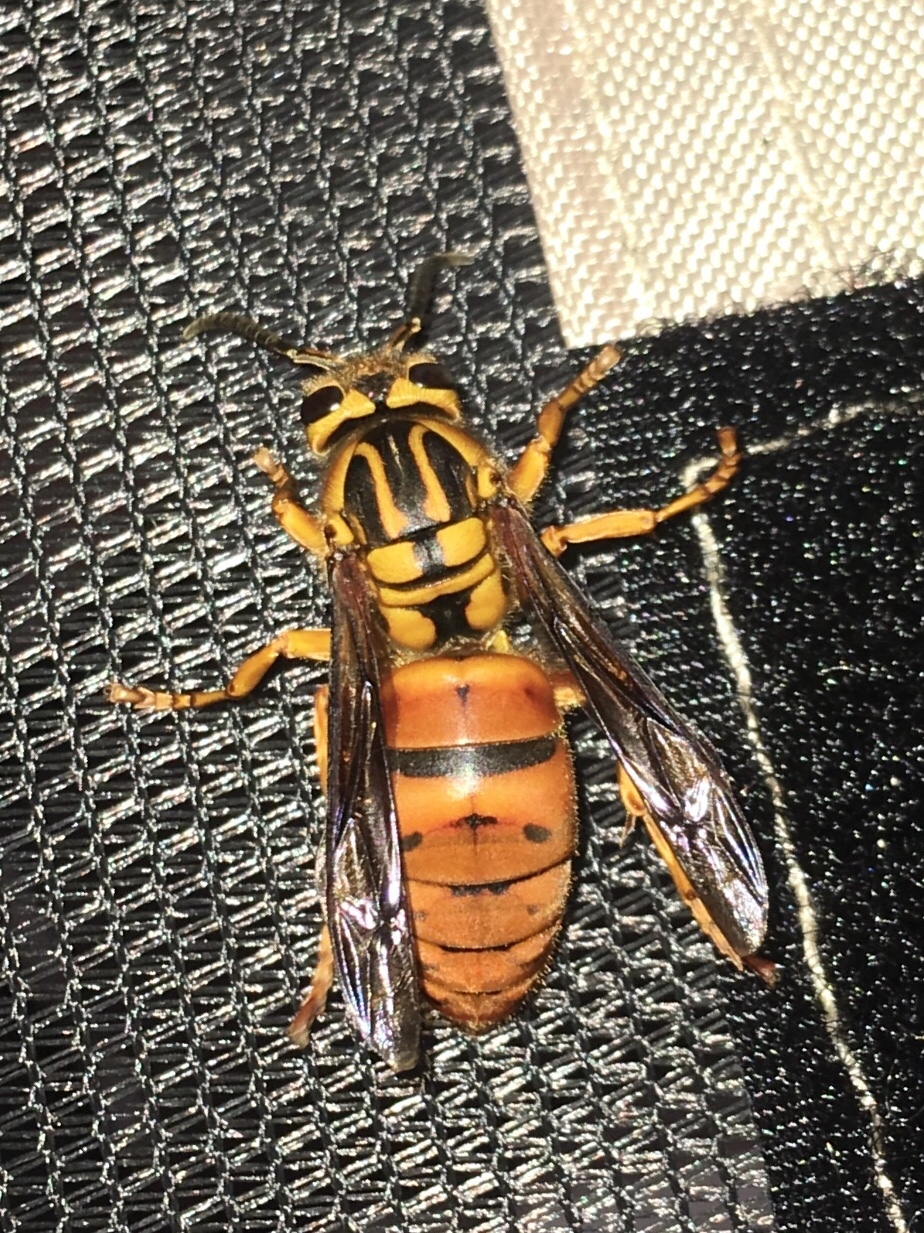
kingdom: Animalia
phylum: Arthropoda
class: Insecta
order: Hymenoptera
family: Vespidae
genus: Vespula
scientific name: Vespula squamosa
